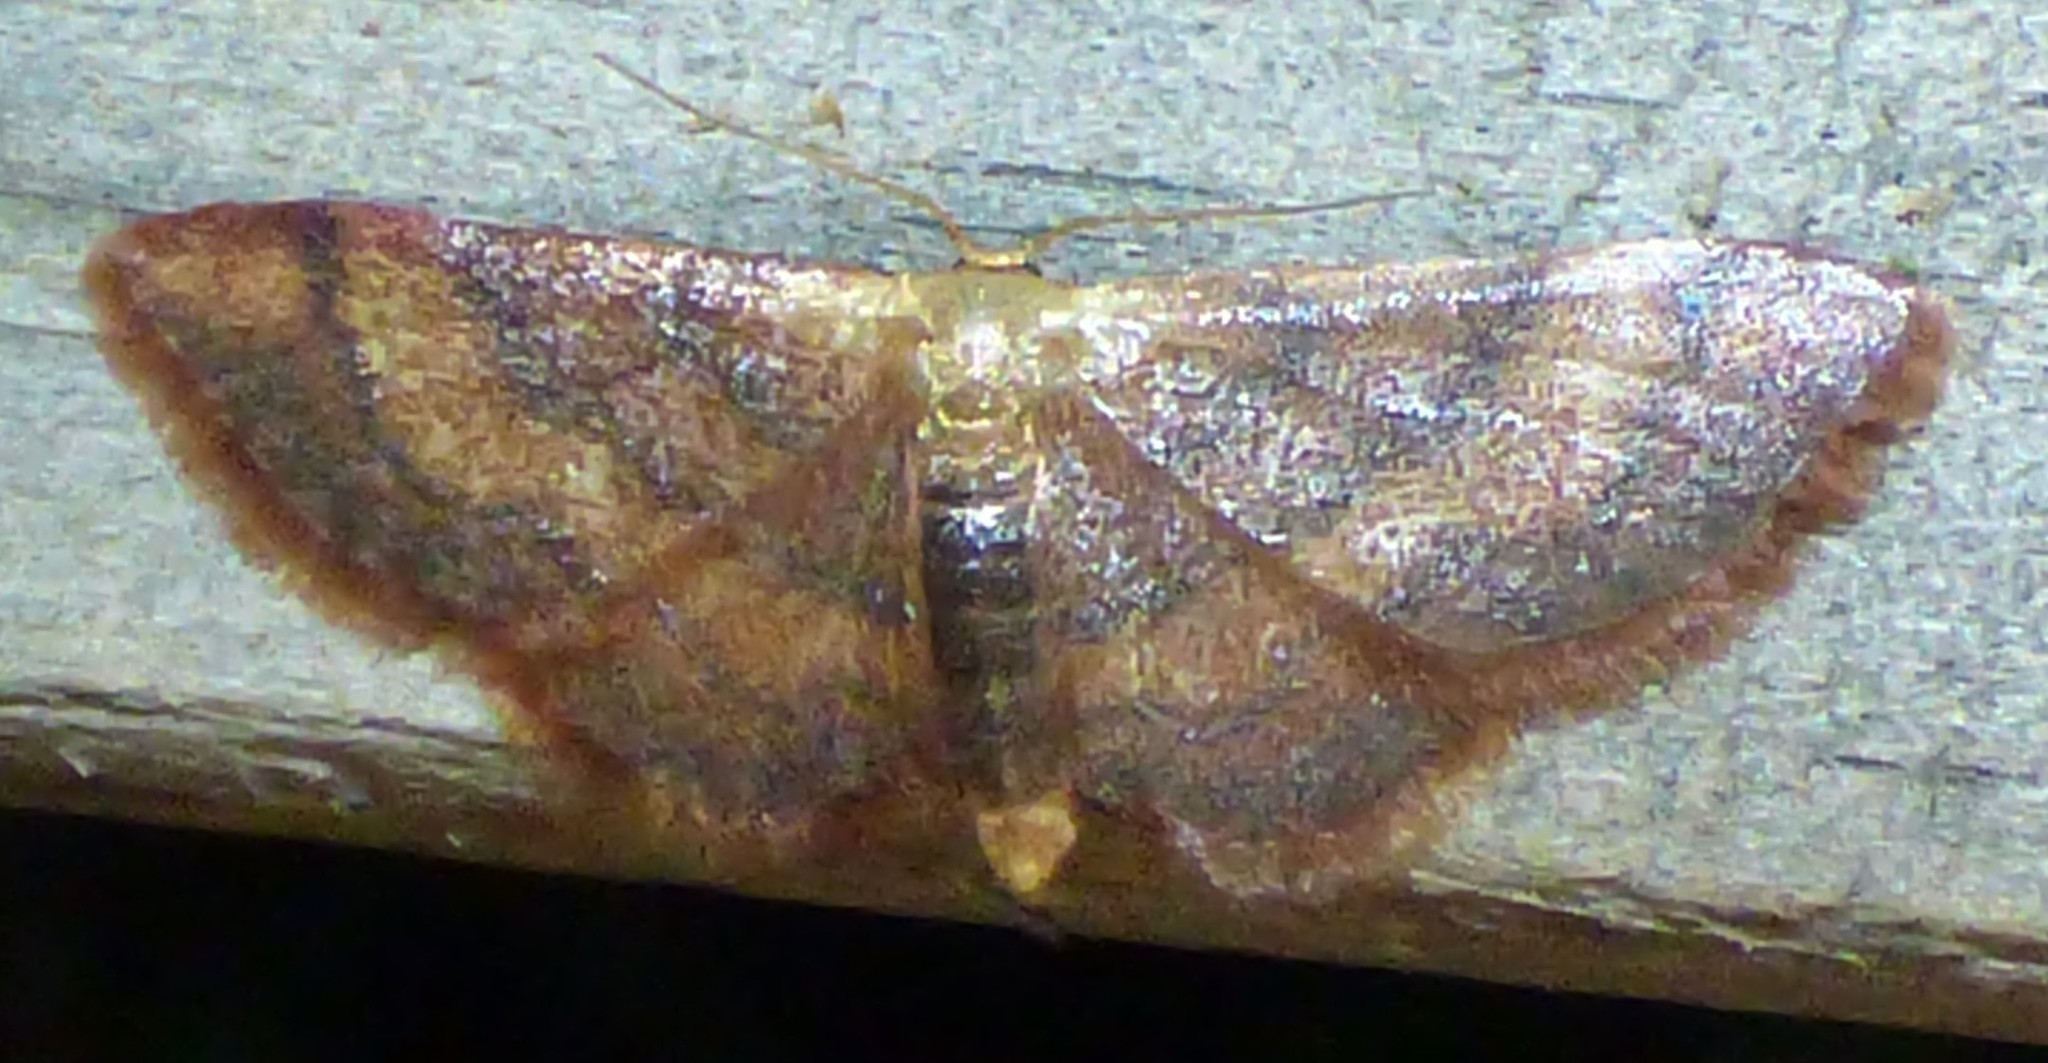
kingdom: Animalia
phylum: Arthropoda
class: Insecta
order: Lepidoptera
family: Geometridae
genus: Idaea
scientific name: Idaea demissaria
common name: Red-bordered wave
